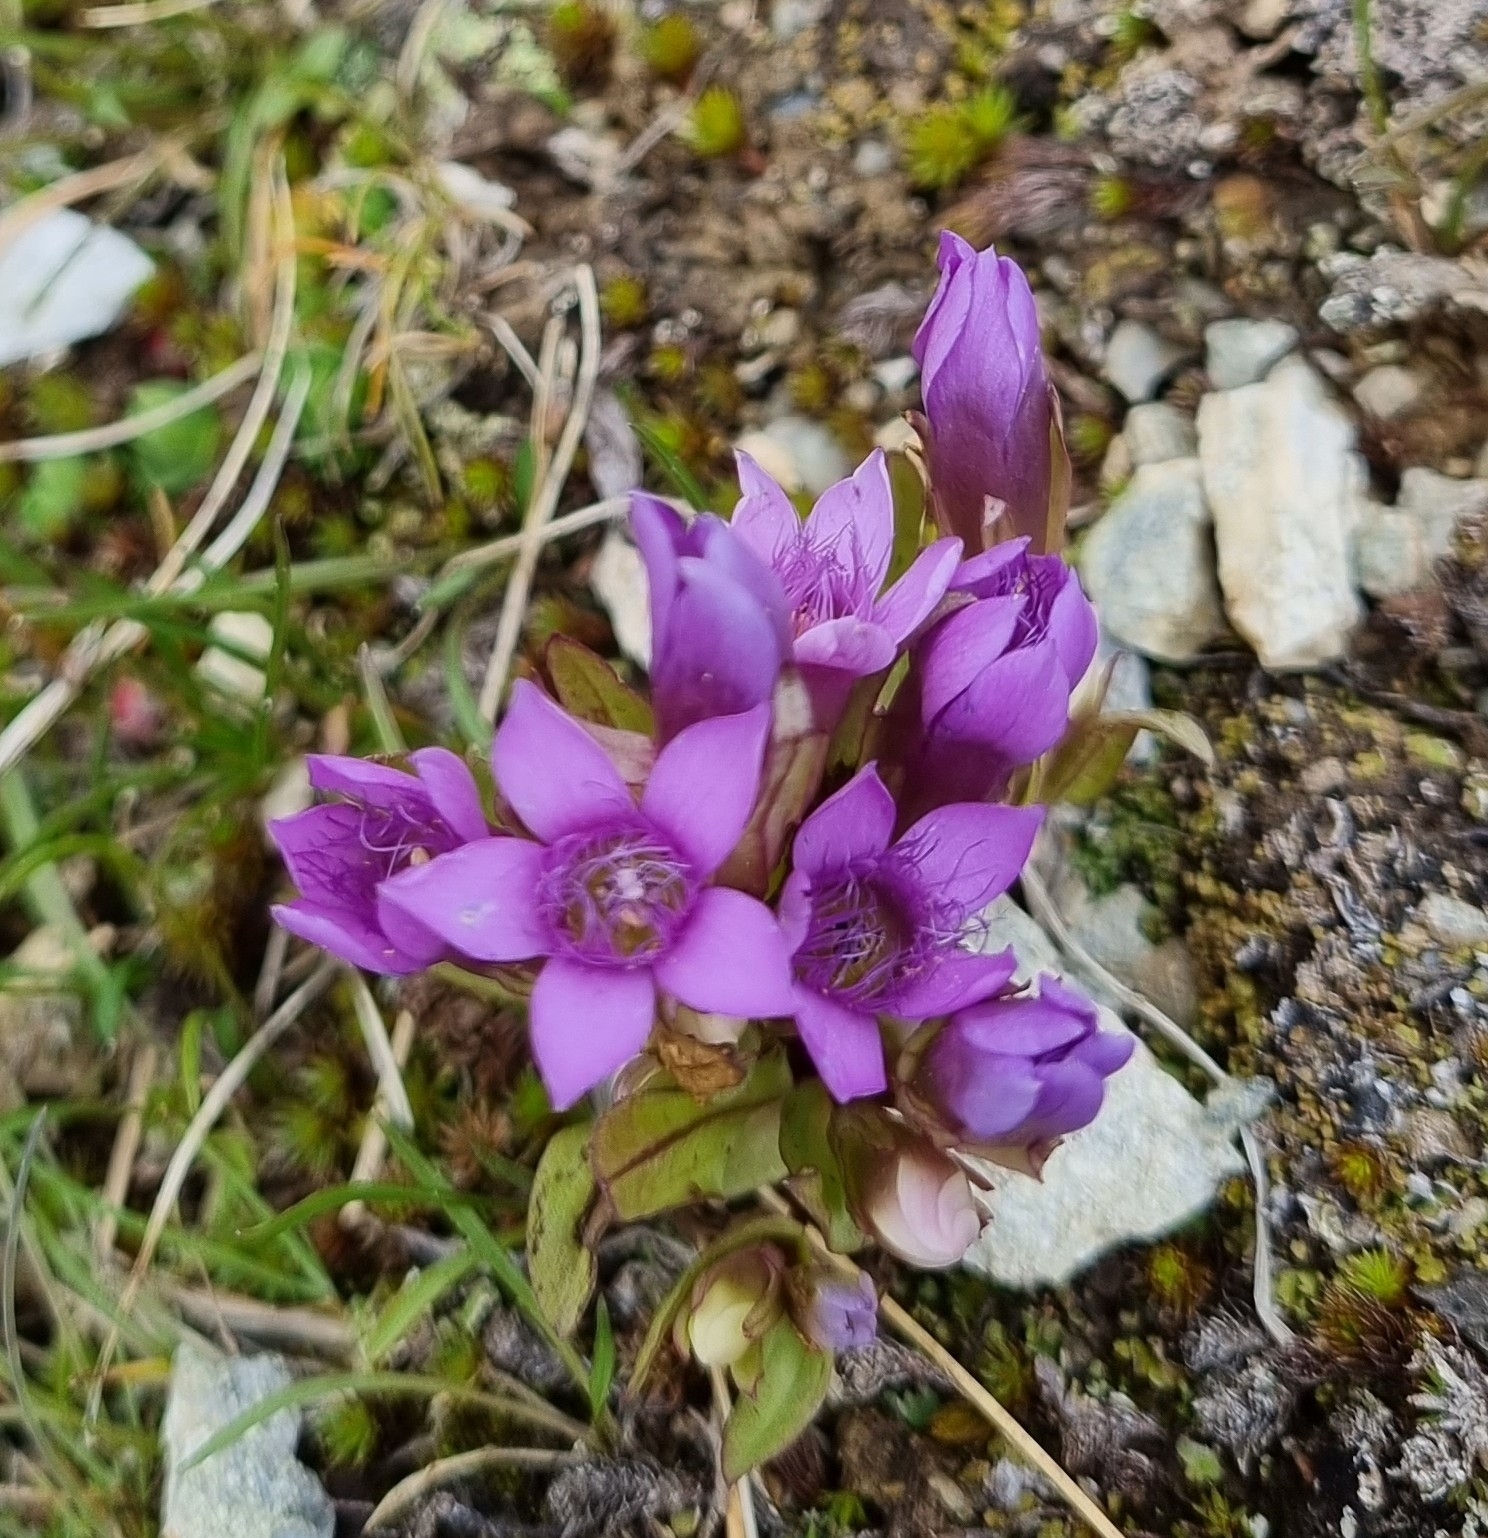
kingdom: Plantae
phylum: Tracheophyta
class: Magnoliopsida
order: Gentianales
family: Gentianaceae
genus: Gentianella
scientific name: Gentianella ramosa
